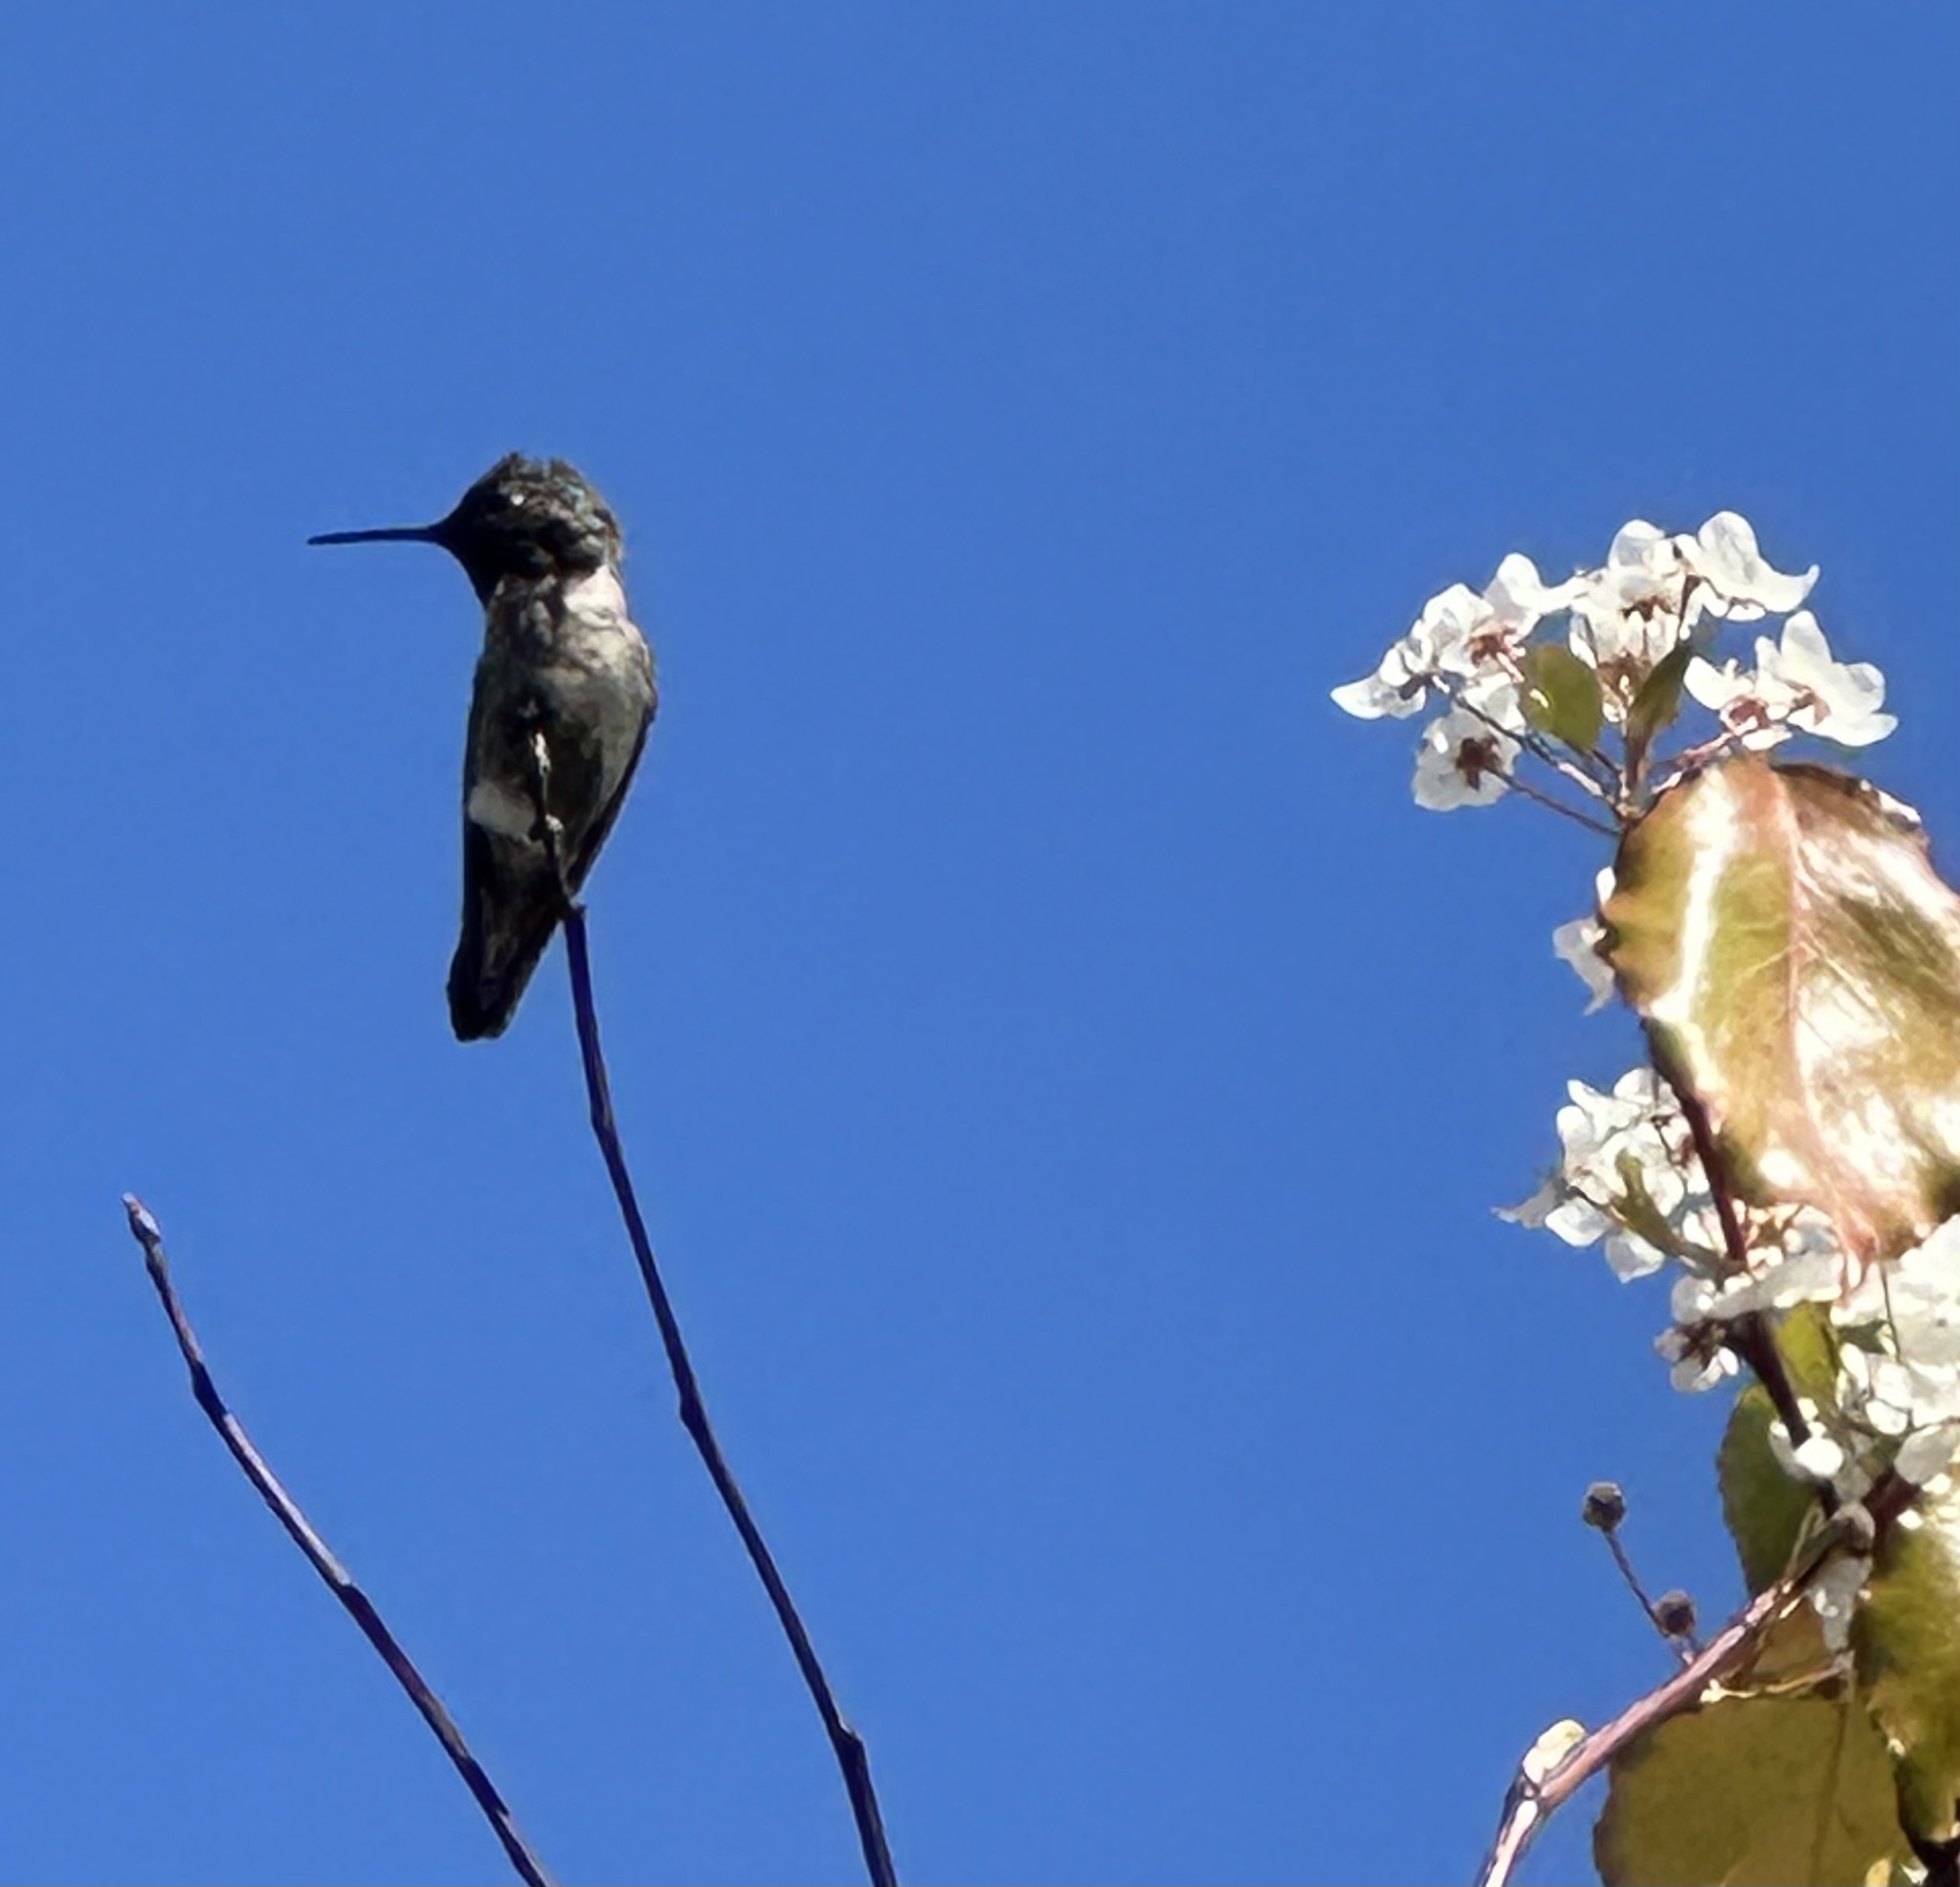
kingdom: Animalia
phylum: Chordata
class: Aves
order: Apodiformes
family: Trochilidae
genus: Calypte
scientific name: Calypte anna
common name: Anna's hummingbird
